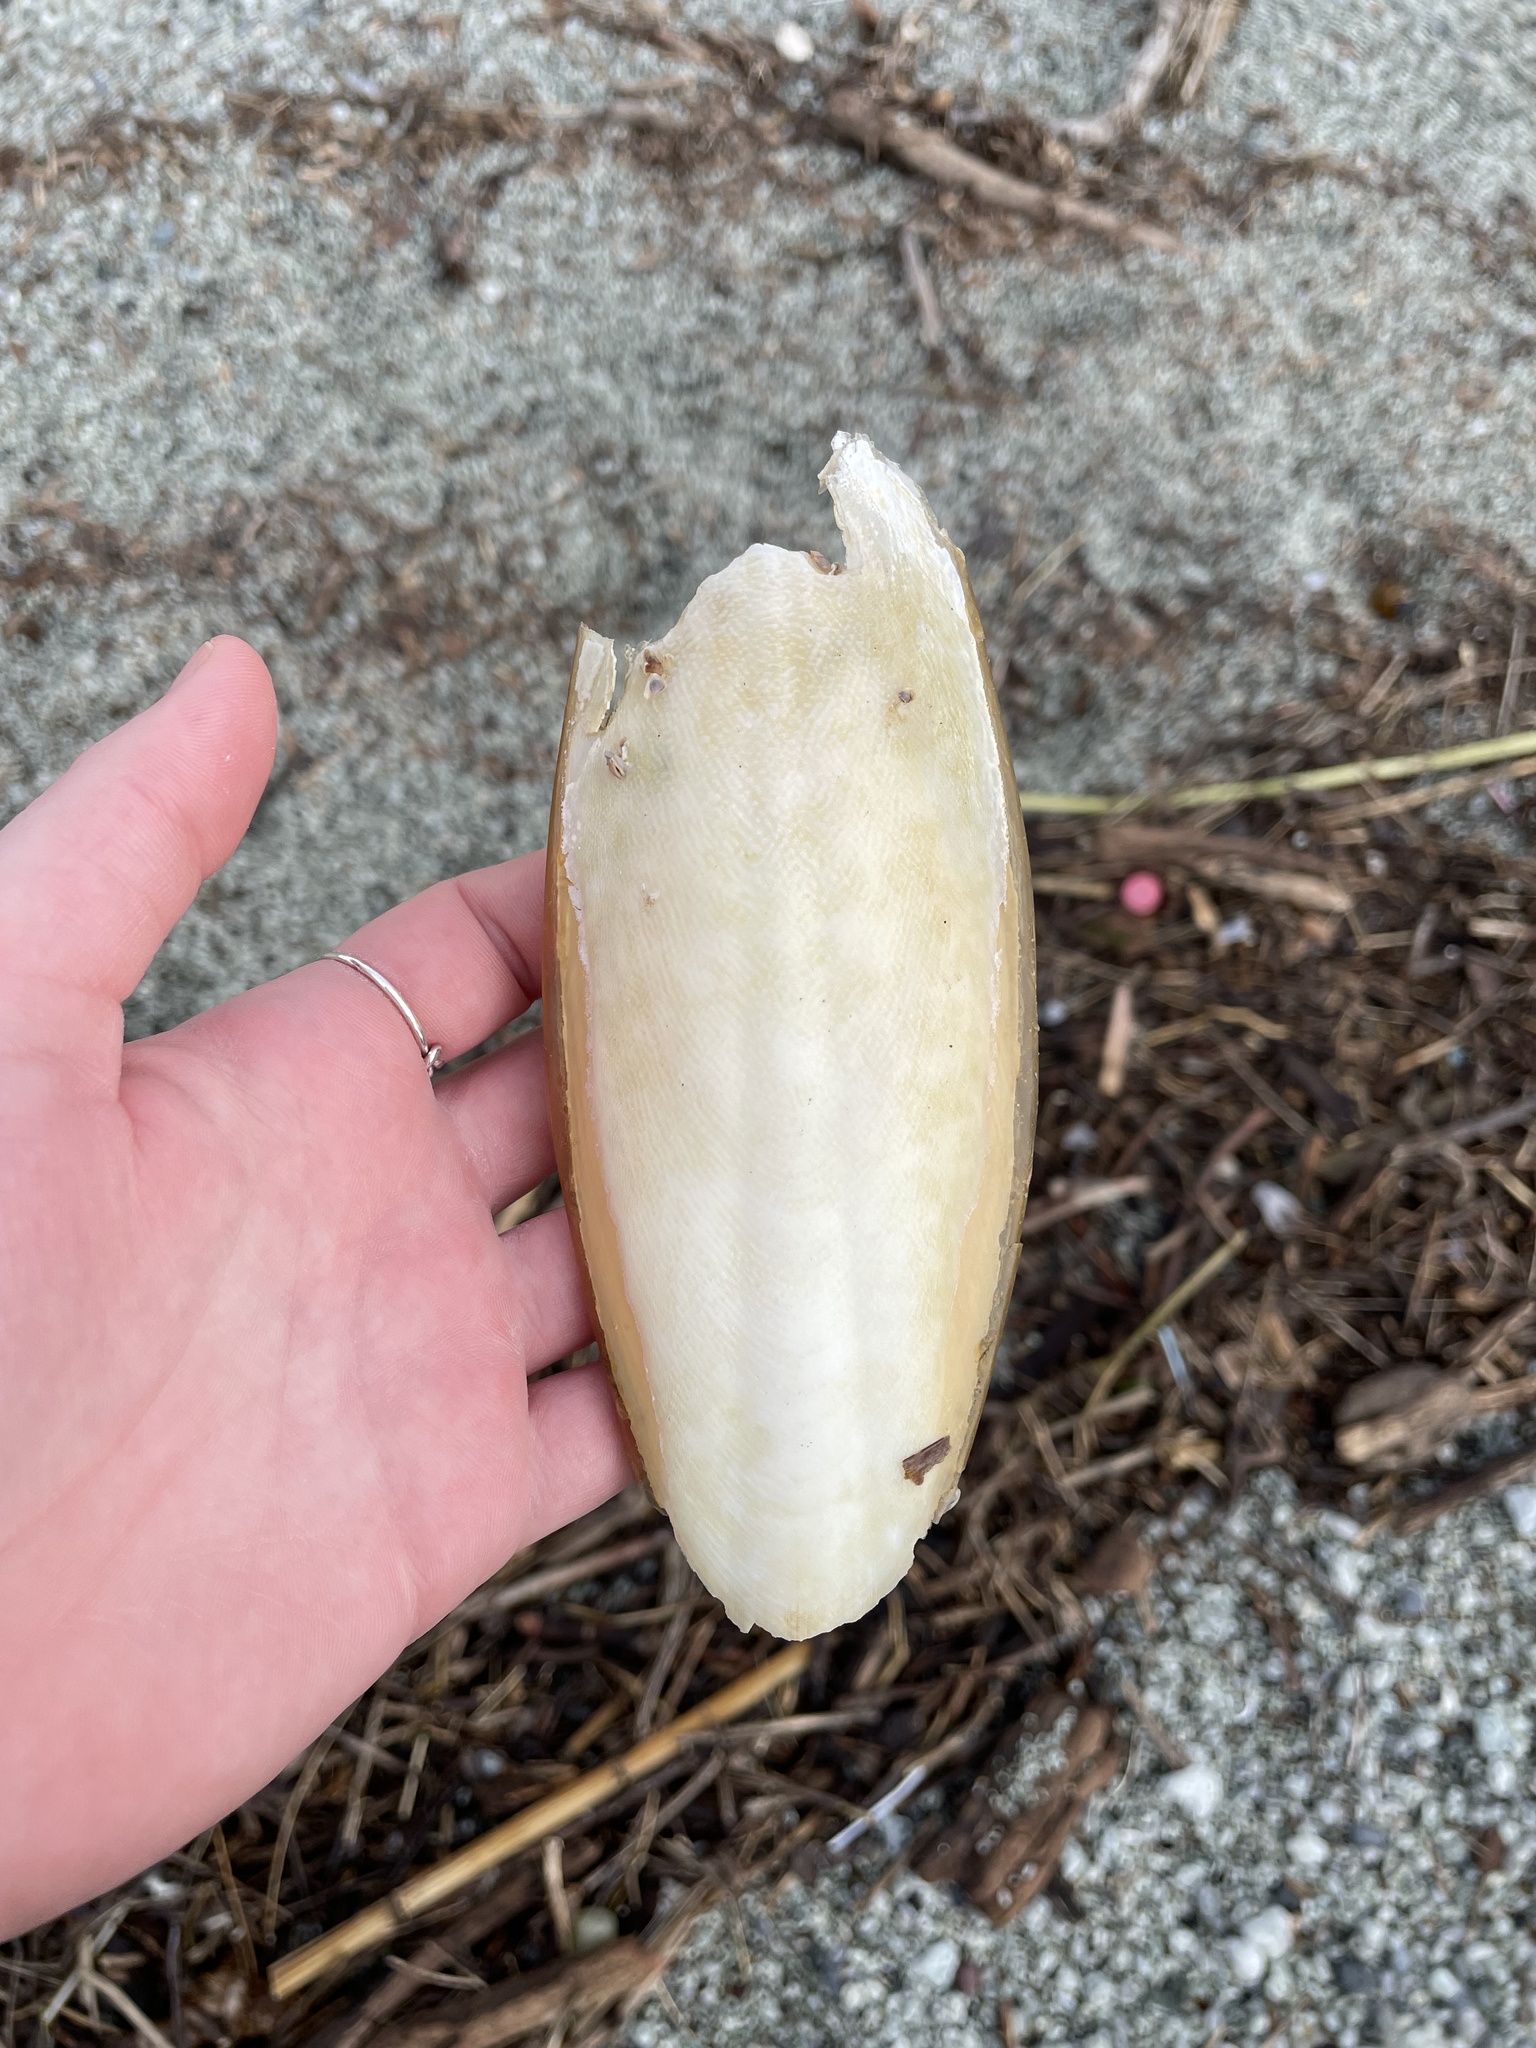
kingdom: Animalia
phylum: Mollusca
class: Cephalopoda
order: Sepiida
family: Sepiidae
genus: Sepia
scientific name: Sepia officinalis
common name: Common cuttlefish
